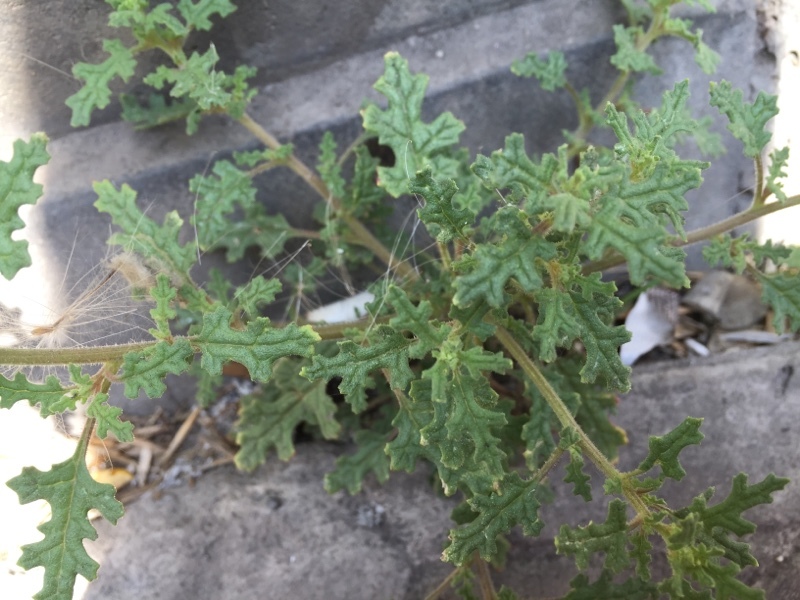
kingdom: Plantae
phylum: Tracheophyta
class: Magnoliopsida
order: Caryophyllales
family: Amaranthaceae
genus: Dysphania
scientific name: Dysphania botrys
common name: Feather-geranium
